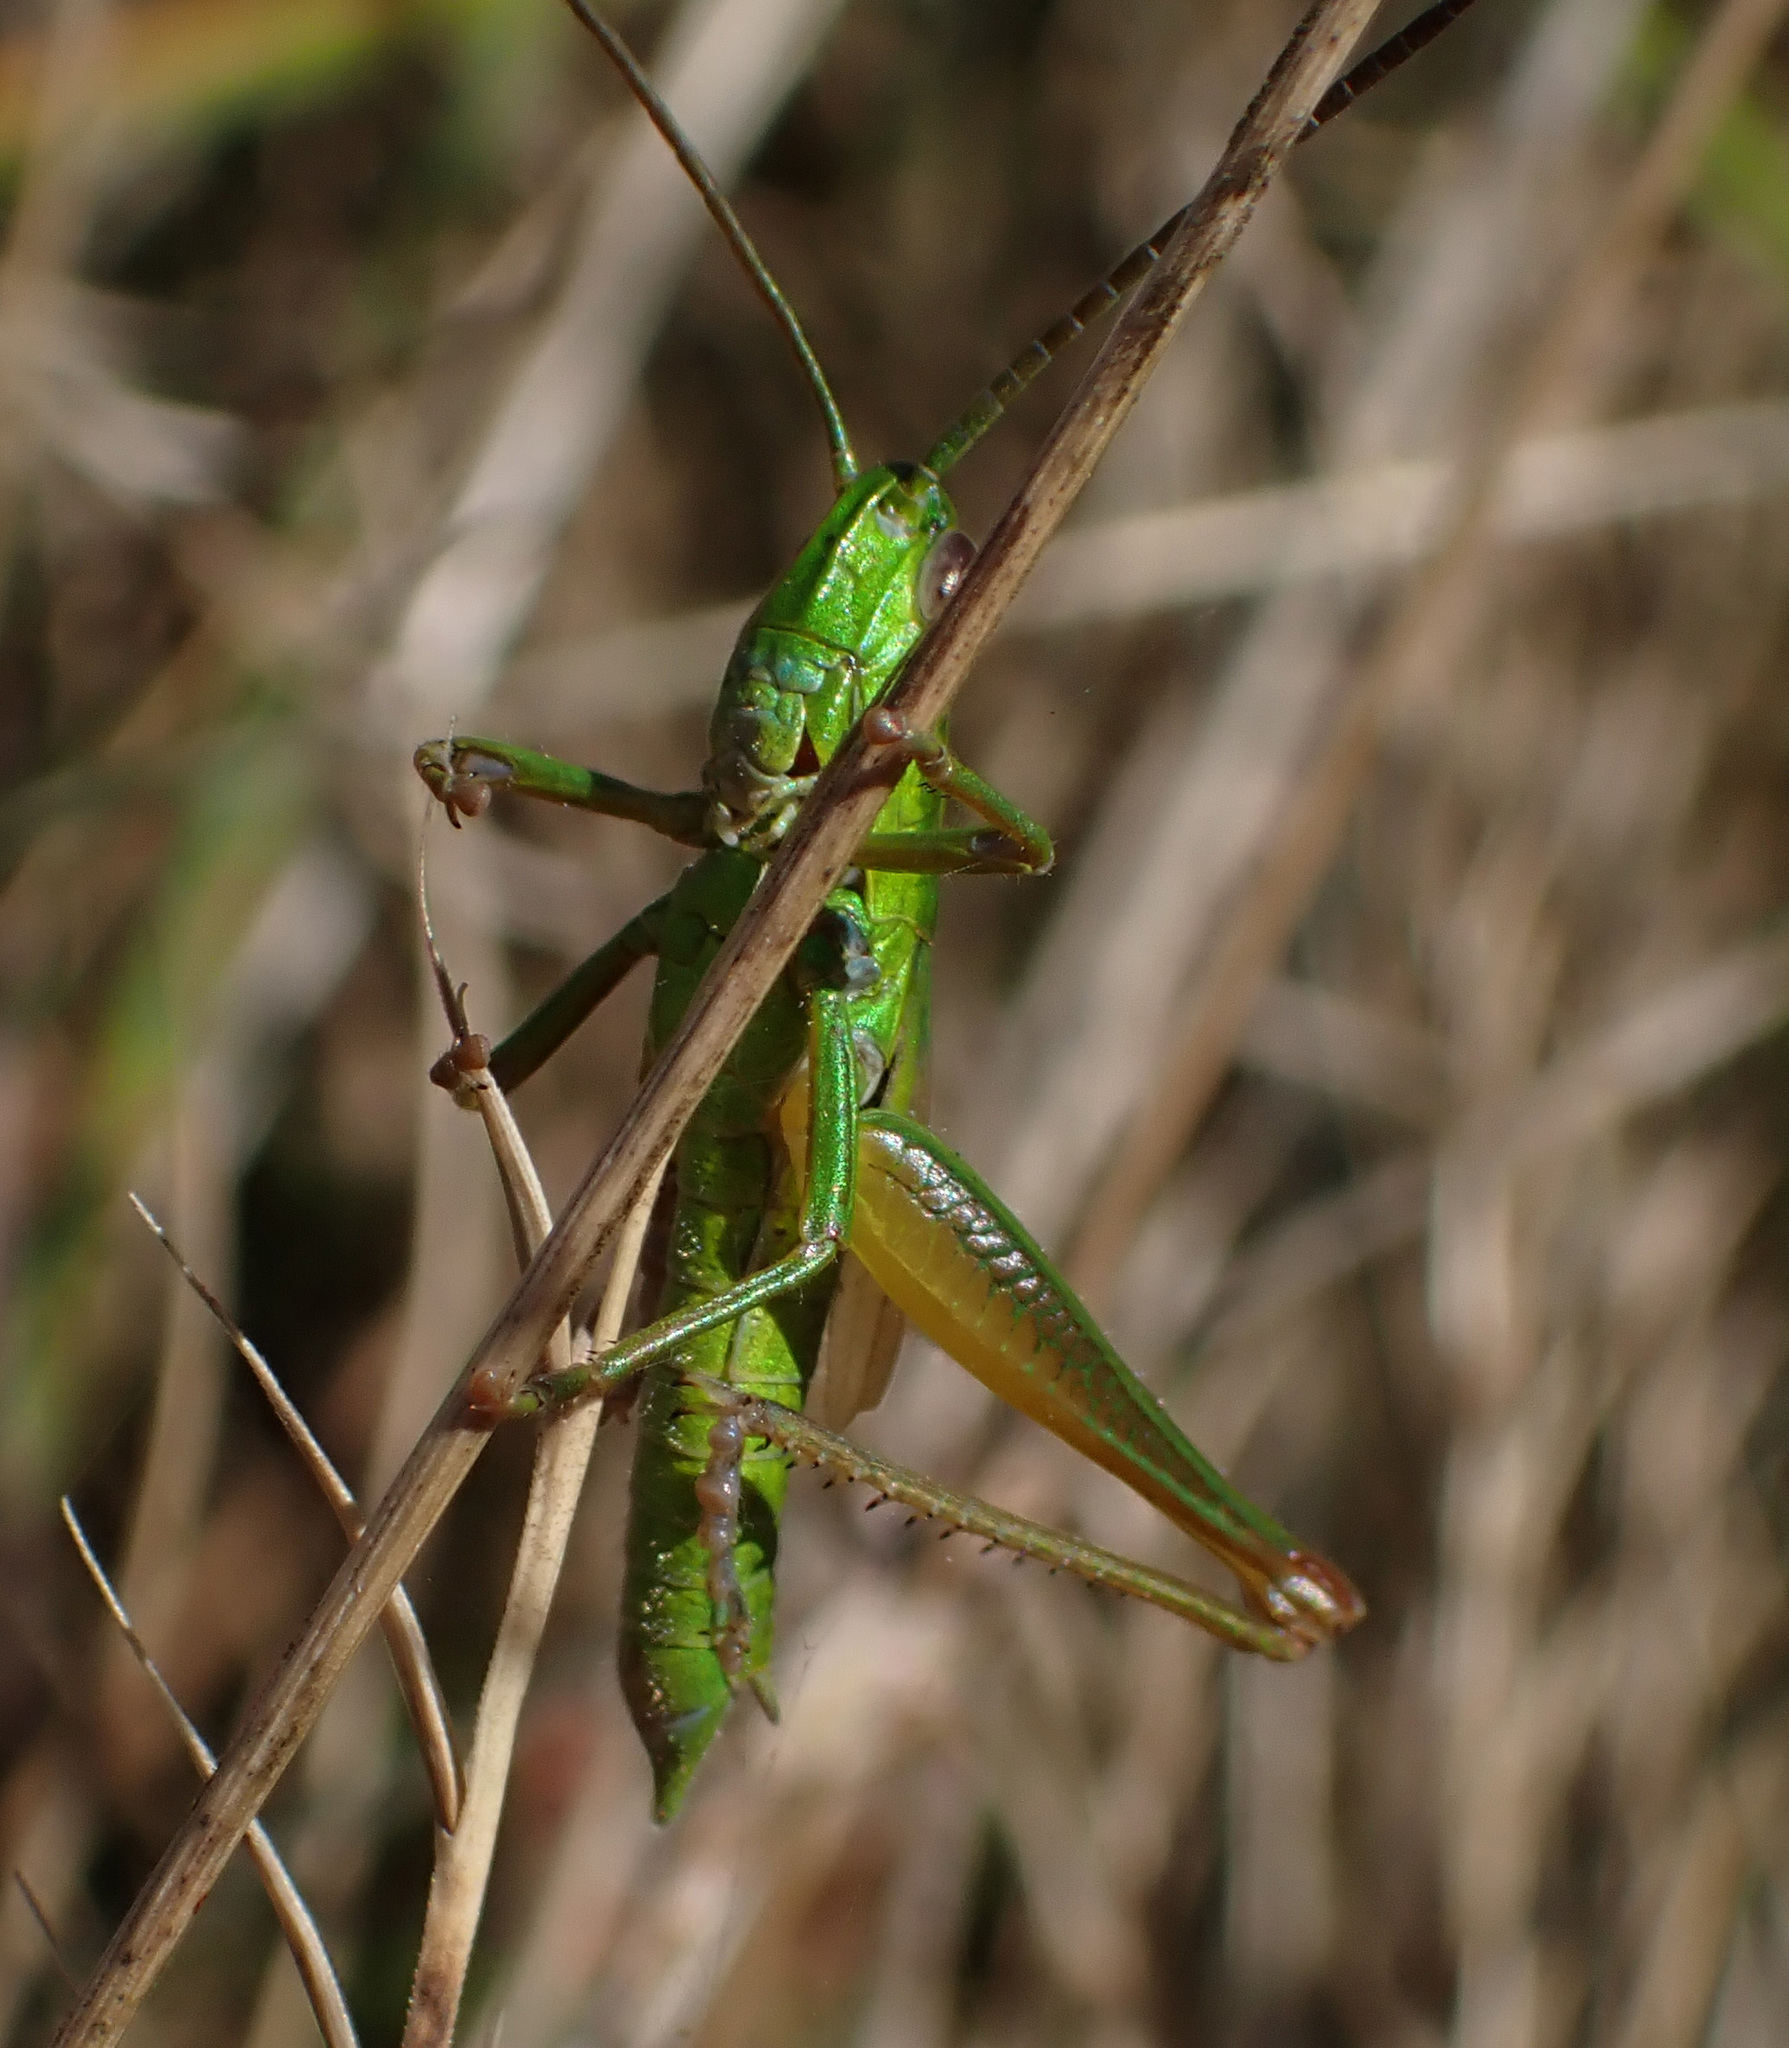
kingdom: Animalia
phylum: Arthropoda
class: Insecta
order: Orthoptera
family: Acrididae
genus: Euthystira
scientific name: Euthystira brachyptera
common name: Small gold grasshopper
